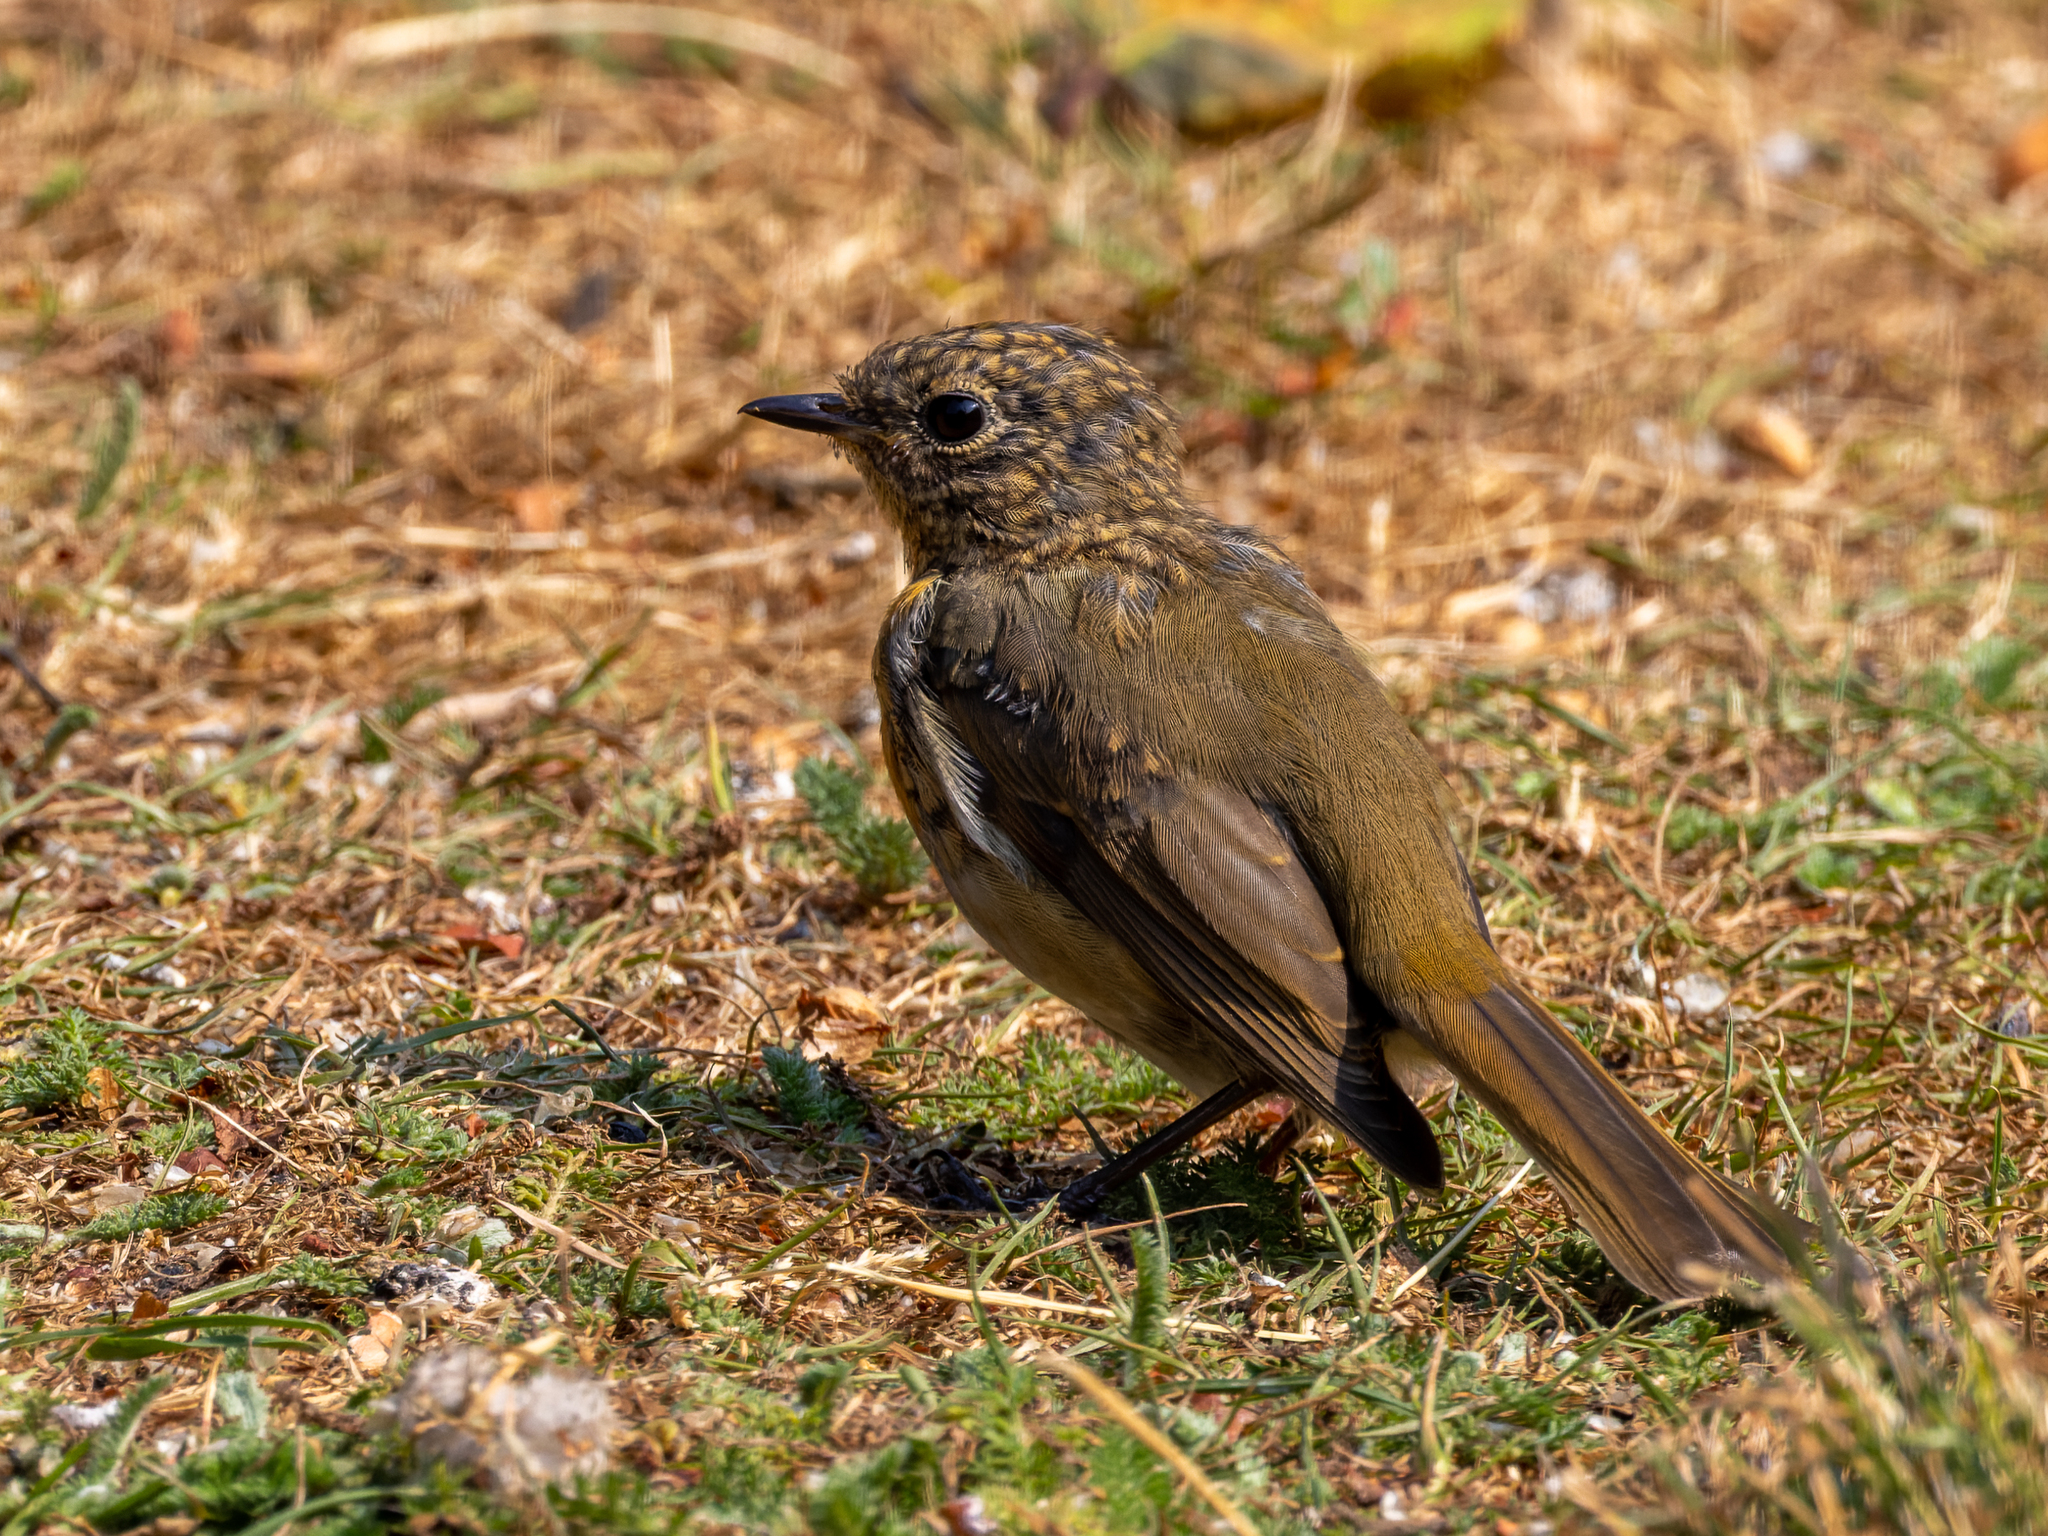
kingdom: Animalia
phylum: Chordata
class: Aves
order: Passeriformes
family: Muscicapidae
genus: Erithacus
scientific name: Erithacus rubecula
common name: European robin
